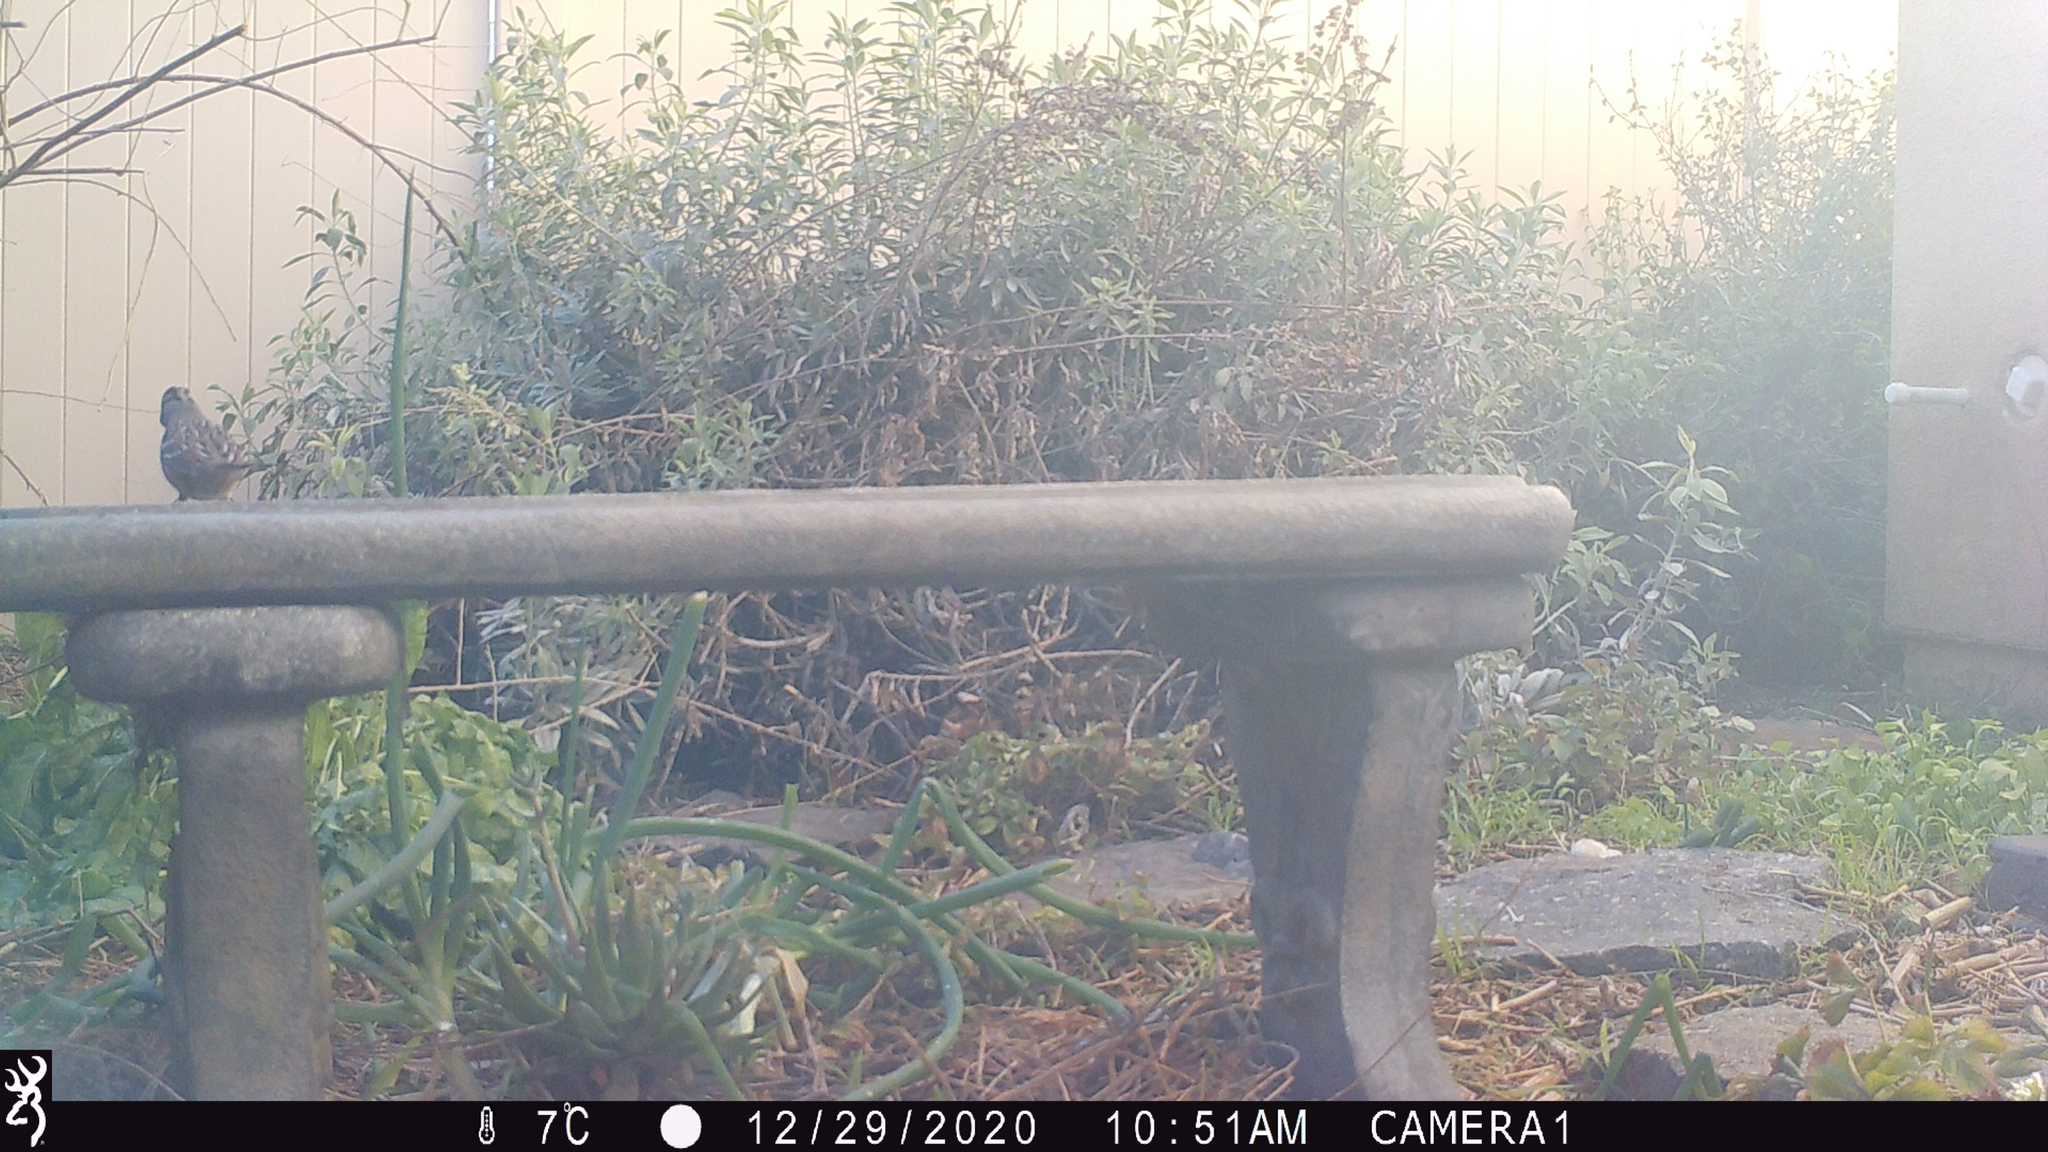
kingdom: Animalia
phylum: Chordata
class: Aves
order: Passeriformes
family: Passerellidae
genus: Zonotrichia
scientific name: Zonotrichia leucophrys
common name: White-crowned sparrow
